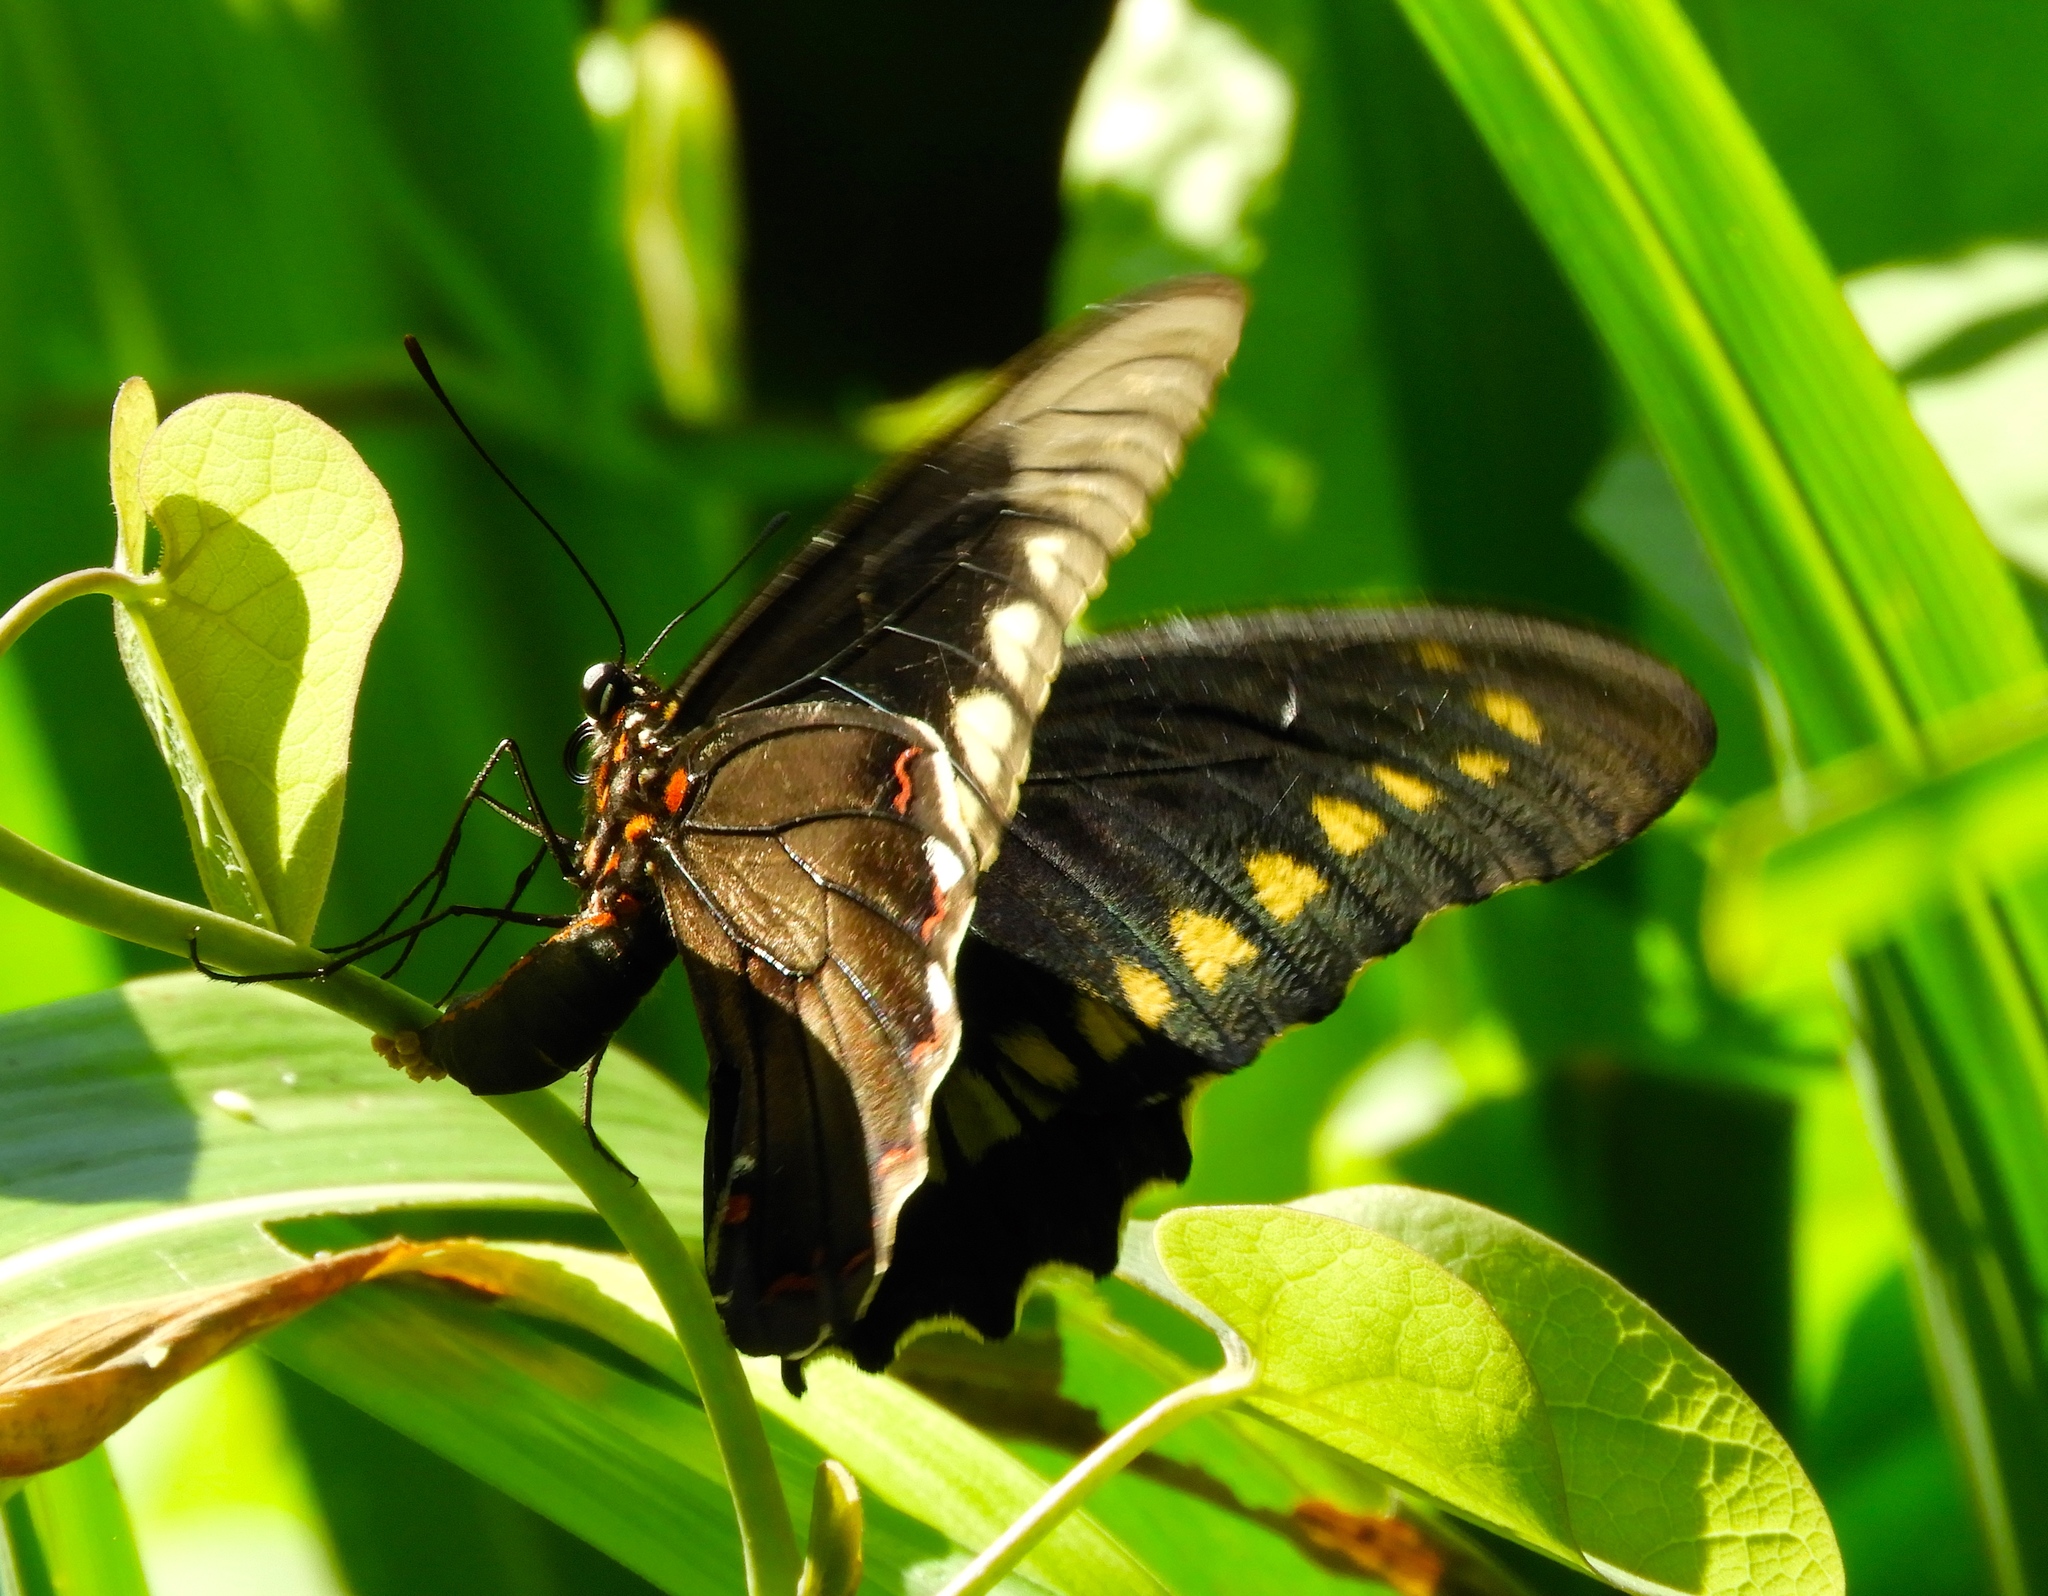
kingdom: Animalia
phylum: Arthropoda
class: Insecta
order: Lepidoptera
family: Papilionidae
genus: Battus
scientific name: Battus polydamas
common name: Polydamas swallowtail
